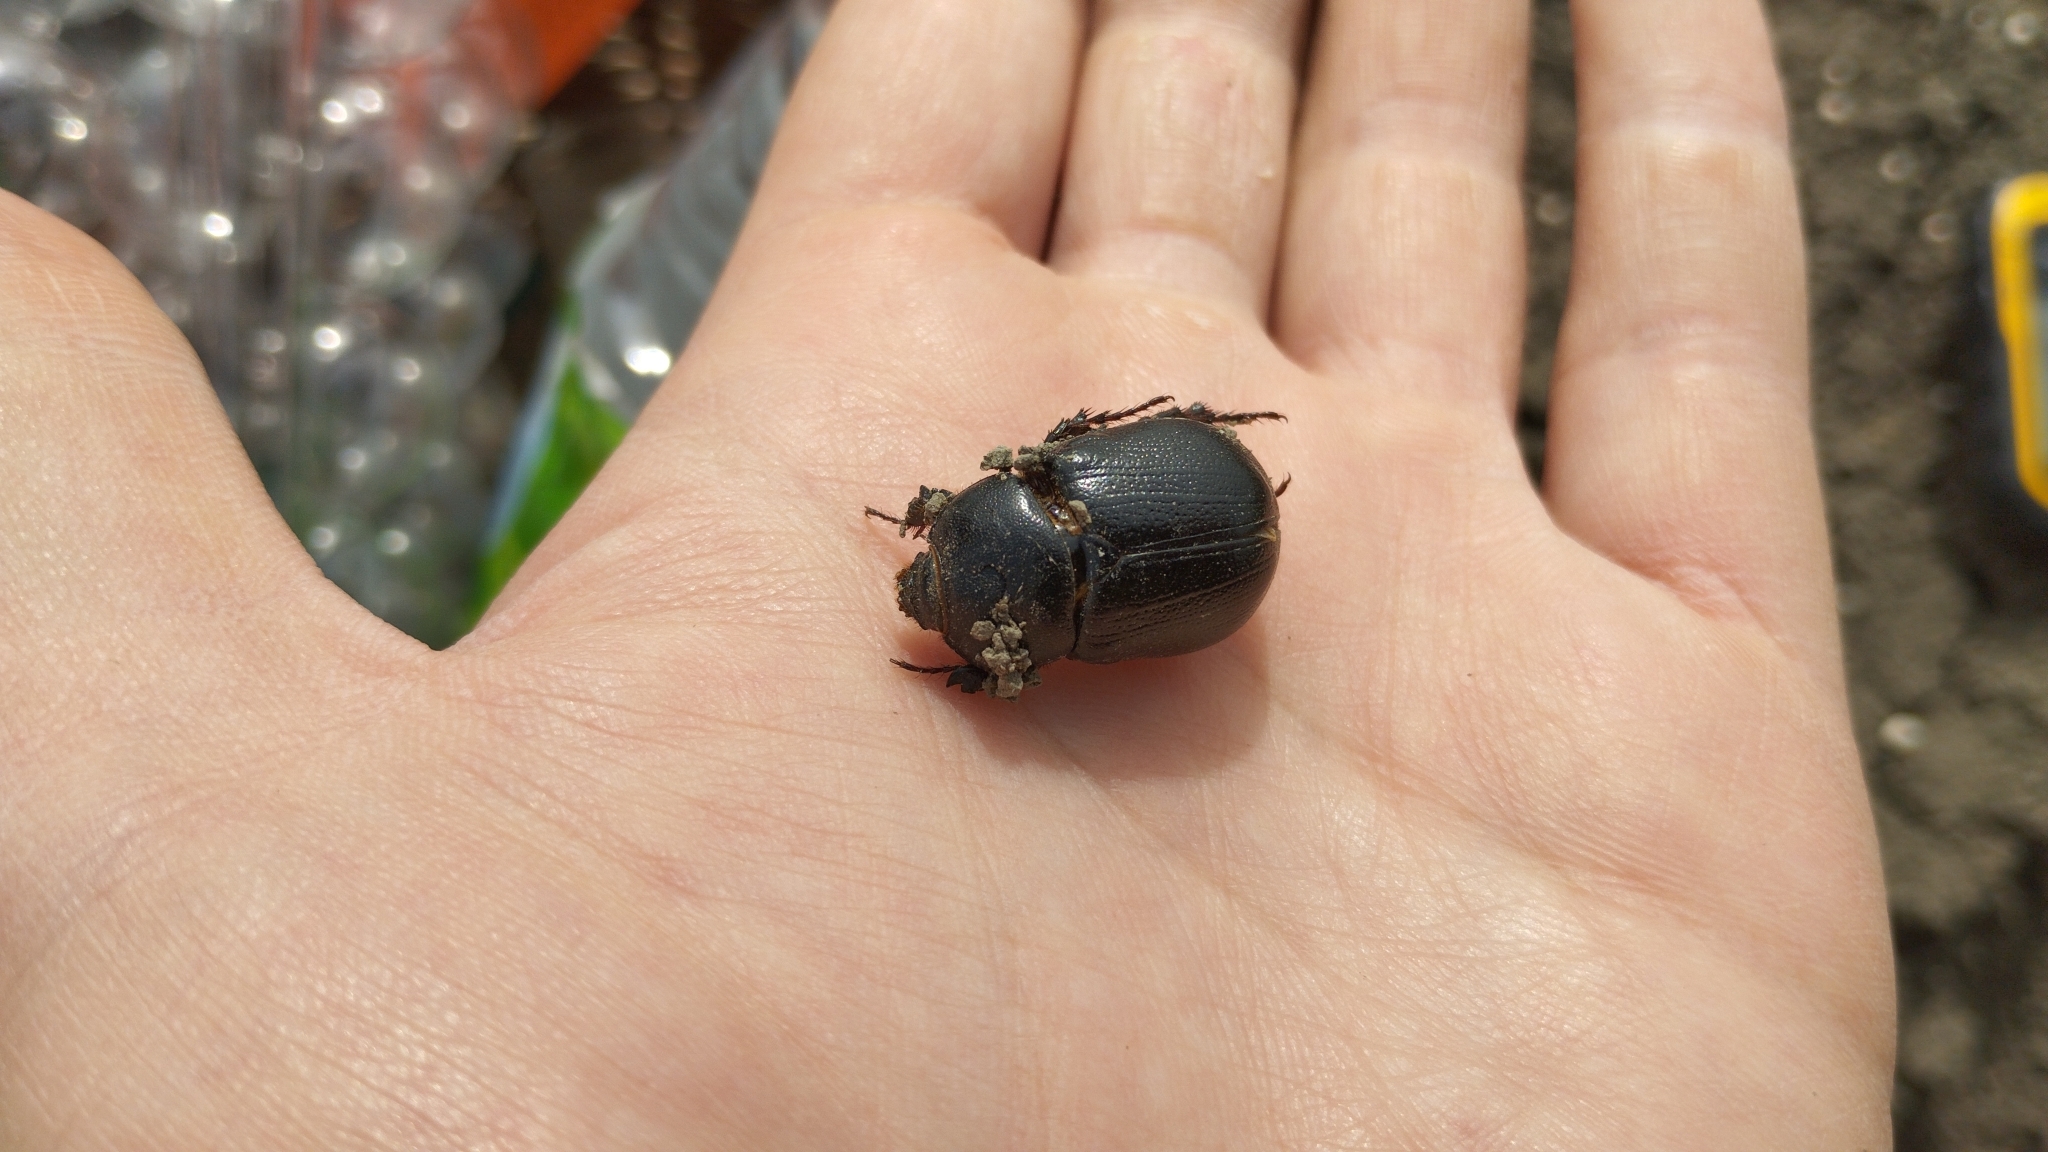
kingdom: Animalia
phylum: Arthropoda
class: Insecta
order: Coleoptera
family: Scarabaeidae
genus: Pentodon
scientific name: Pentodon bidens
